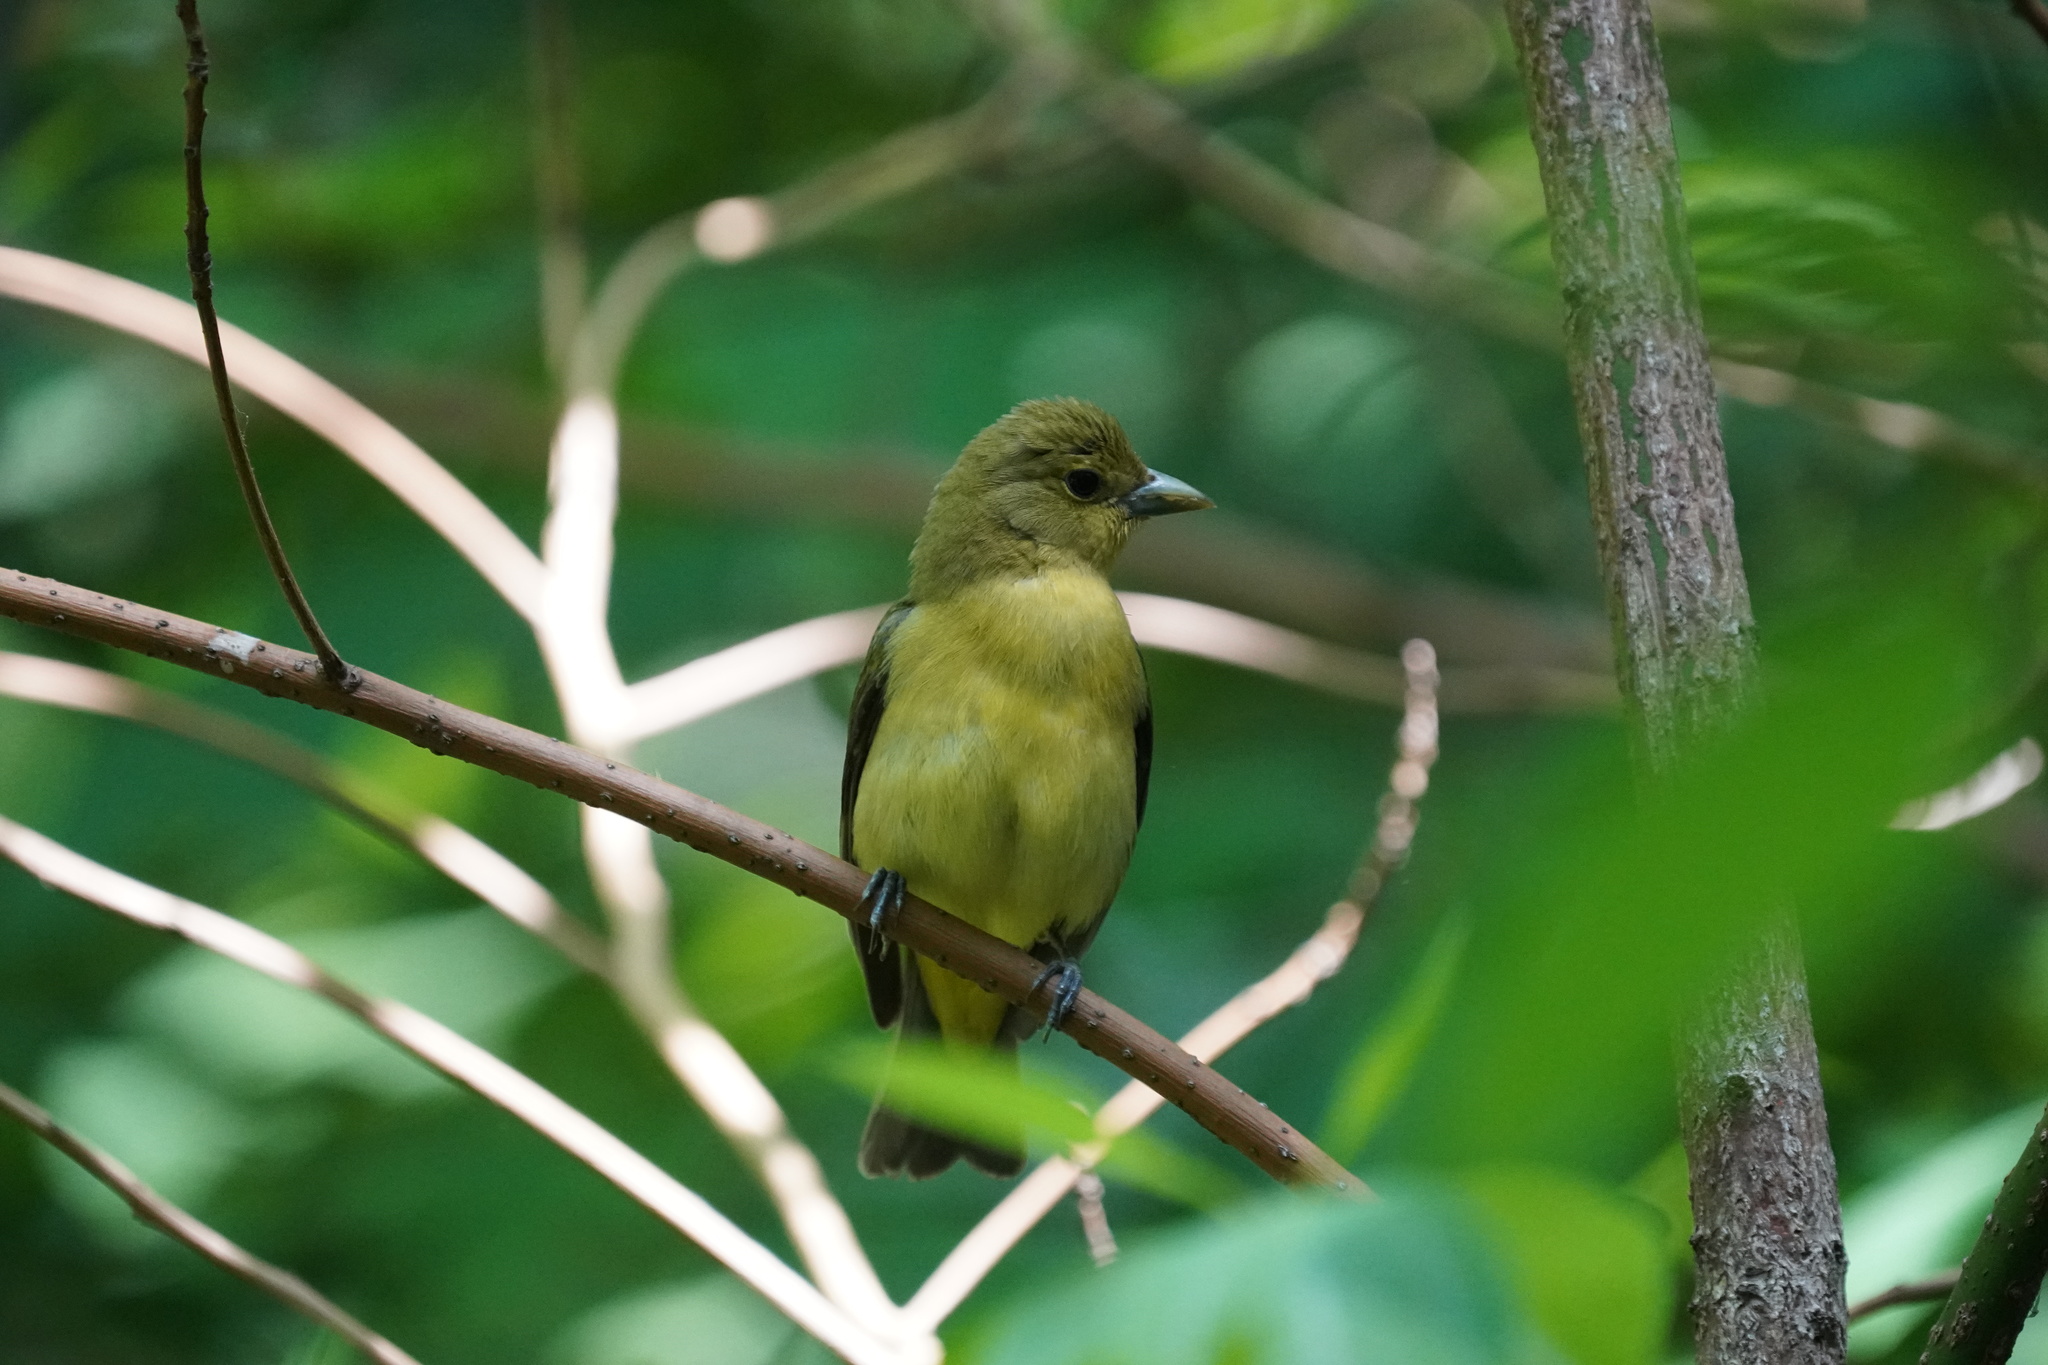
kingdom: Animalia
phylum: Chordata
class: Aves
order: Passeriformes
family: Cardinalidae
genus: Piranga
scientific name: Piranga olivacea
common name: Scarlet tanager
